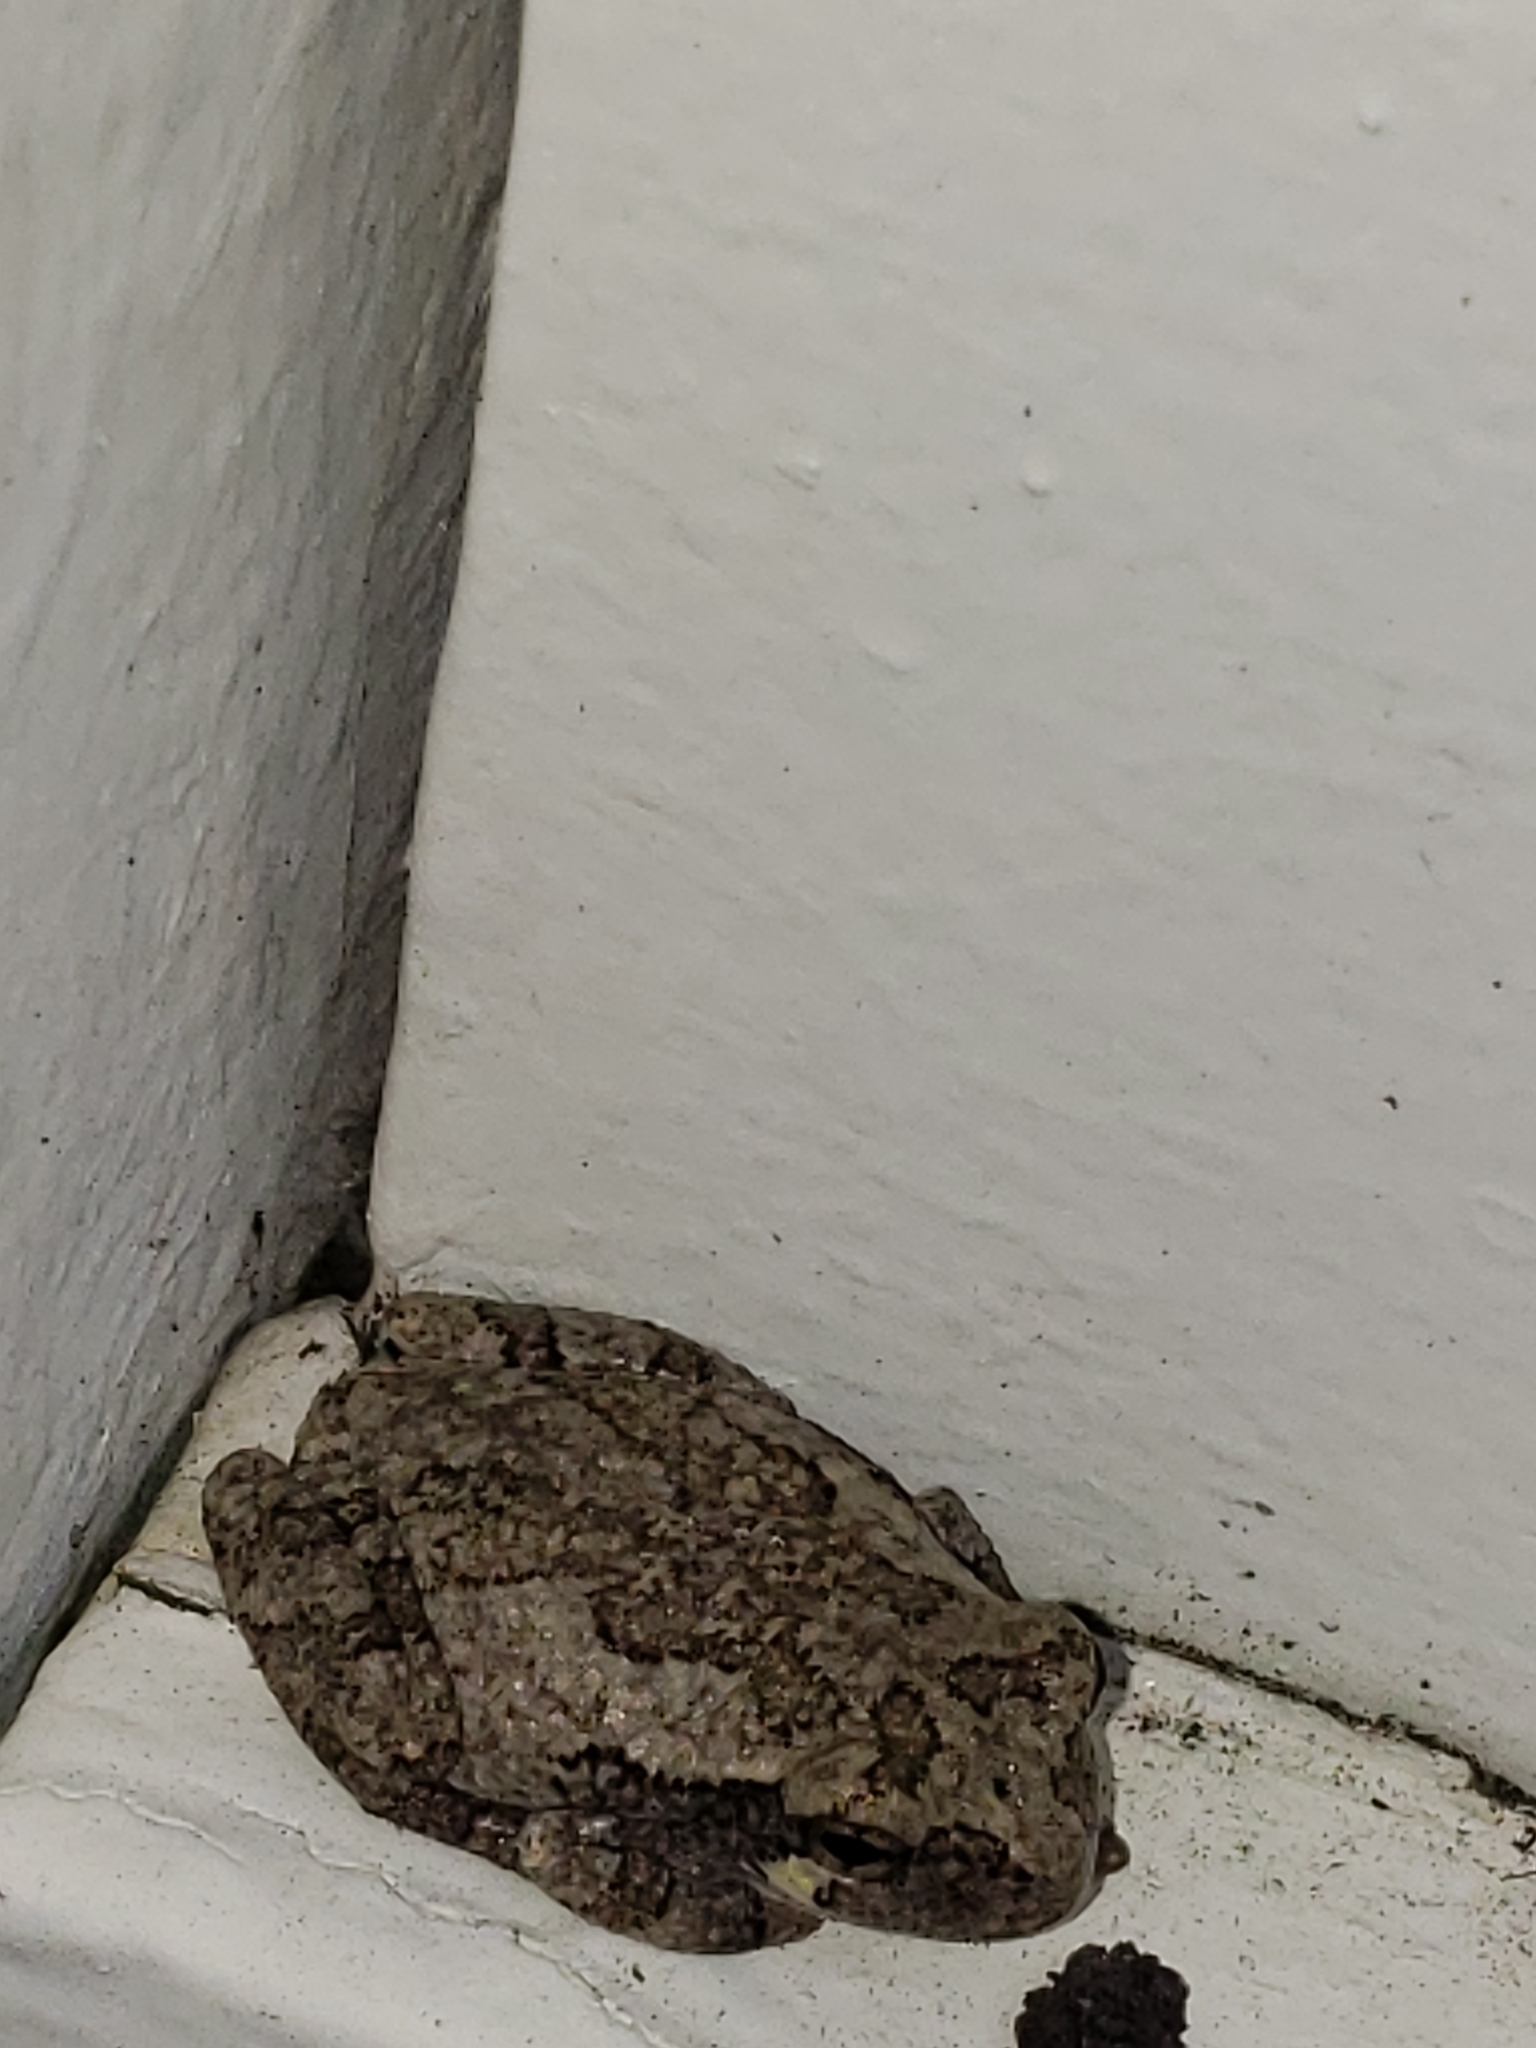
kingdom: Animalia
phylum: Chordata
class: Amphibia
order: Anura
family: Hylidae
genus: Hyla
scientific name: Hyla
